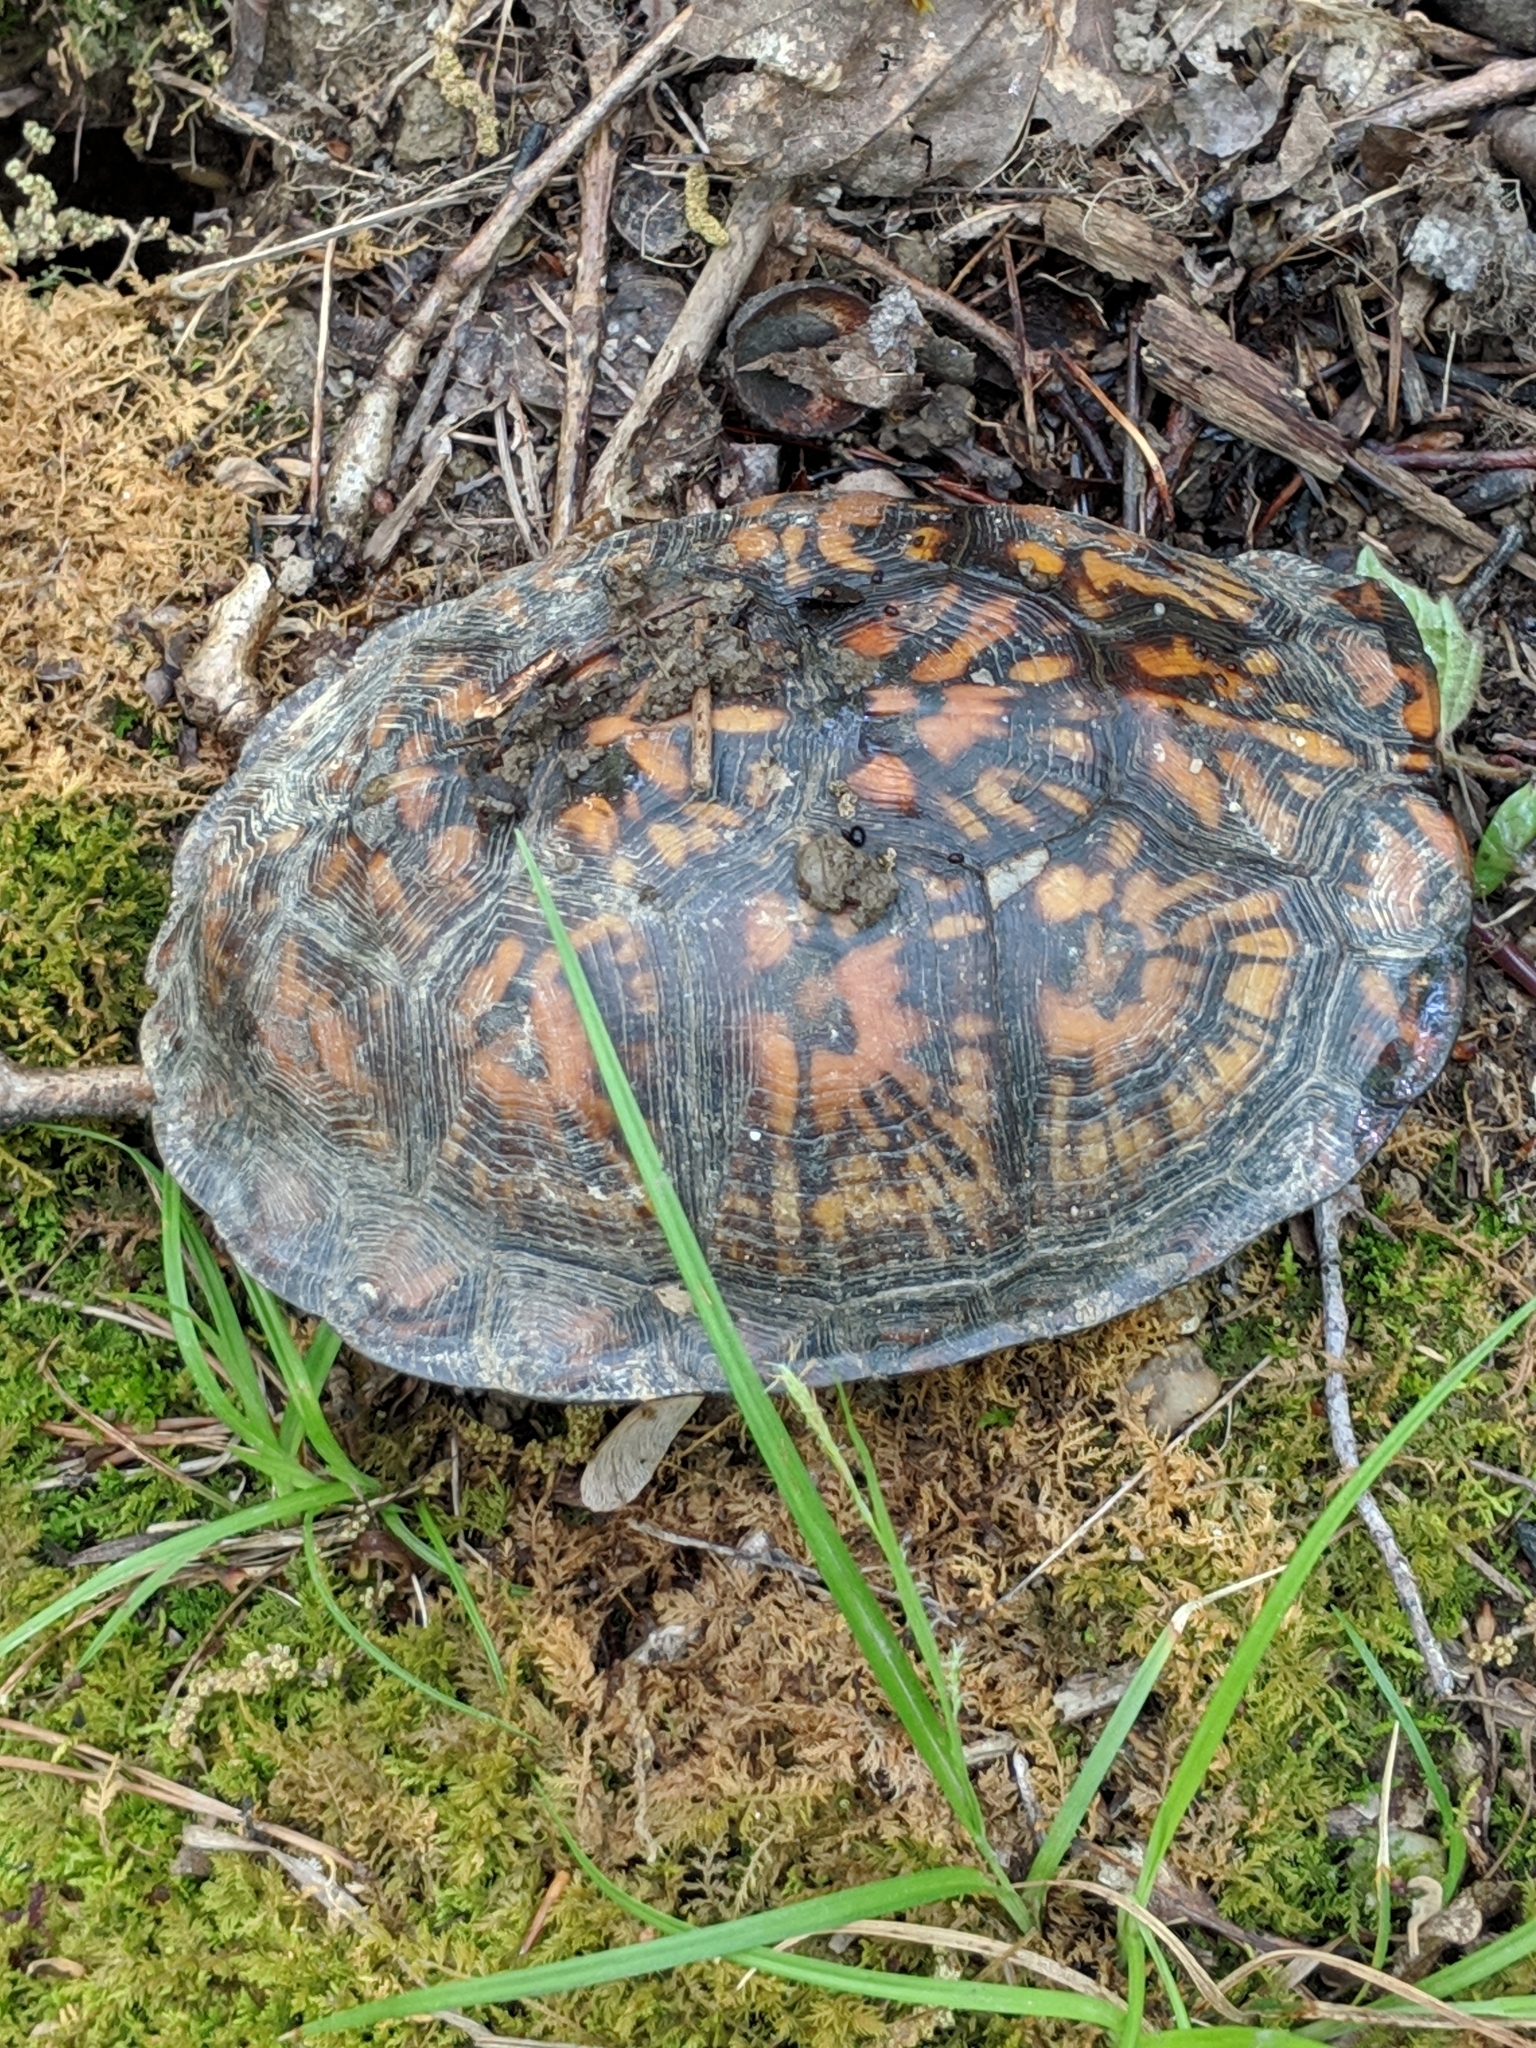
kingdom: Animalia
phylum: Chordata
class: Testudines
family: Emydidae
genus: Terrapene
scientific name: Terrapene carolina
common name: Common box turtle
